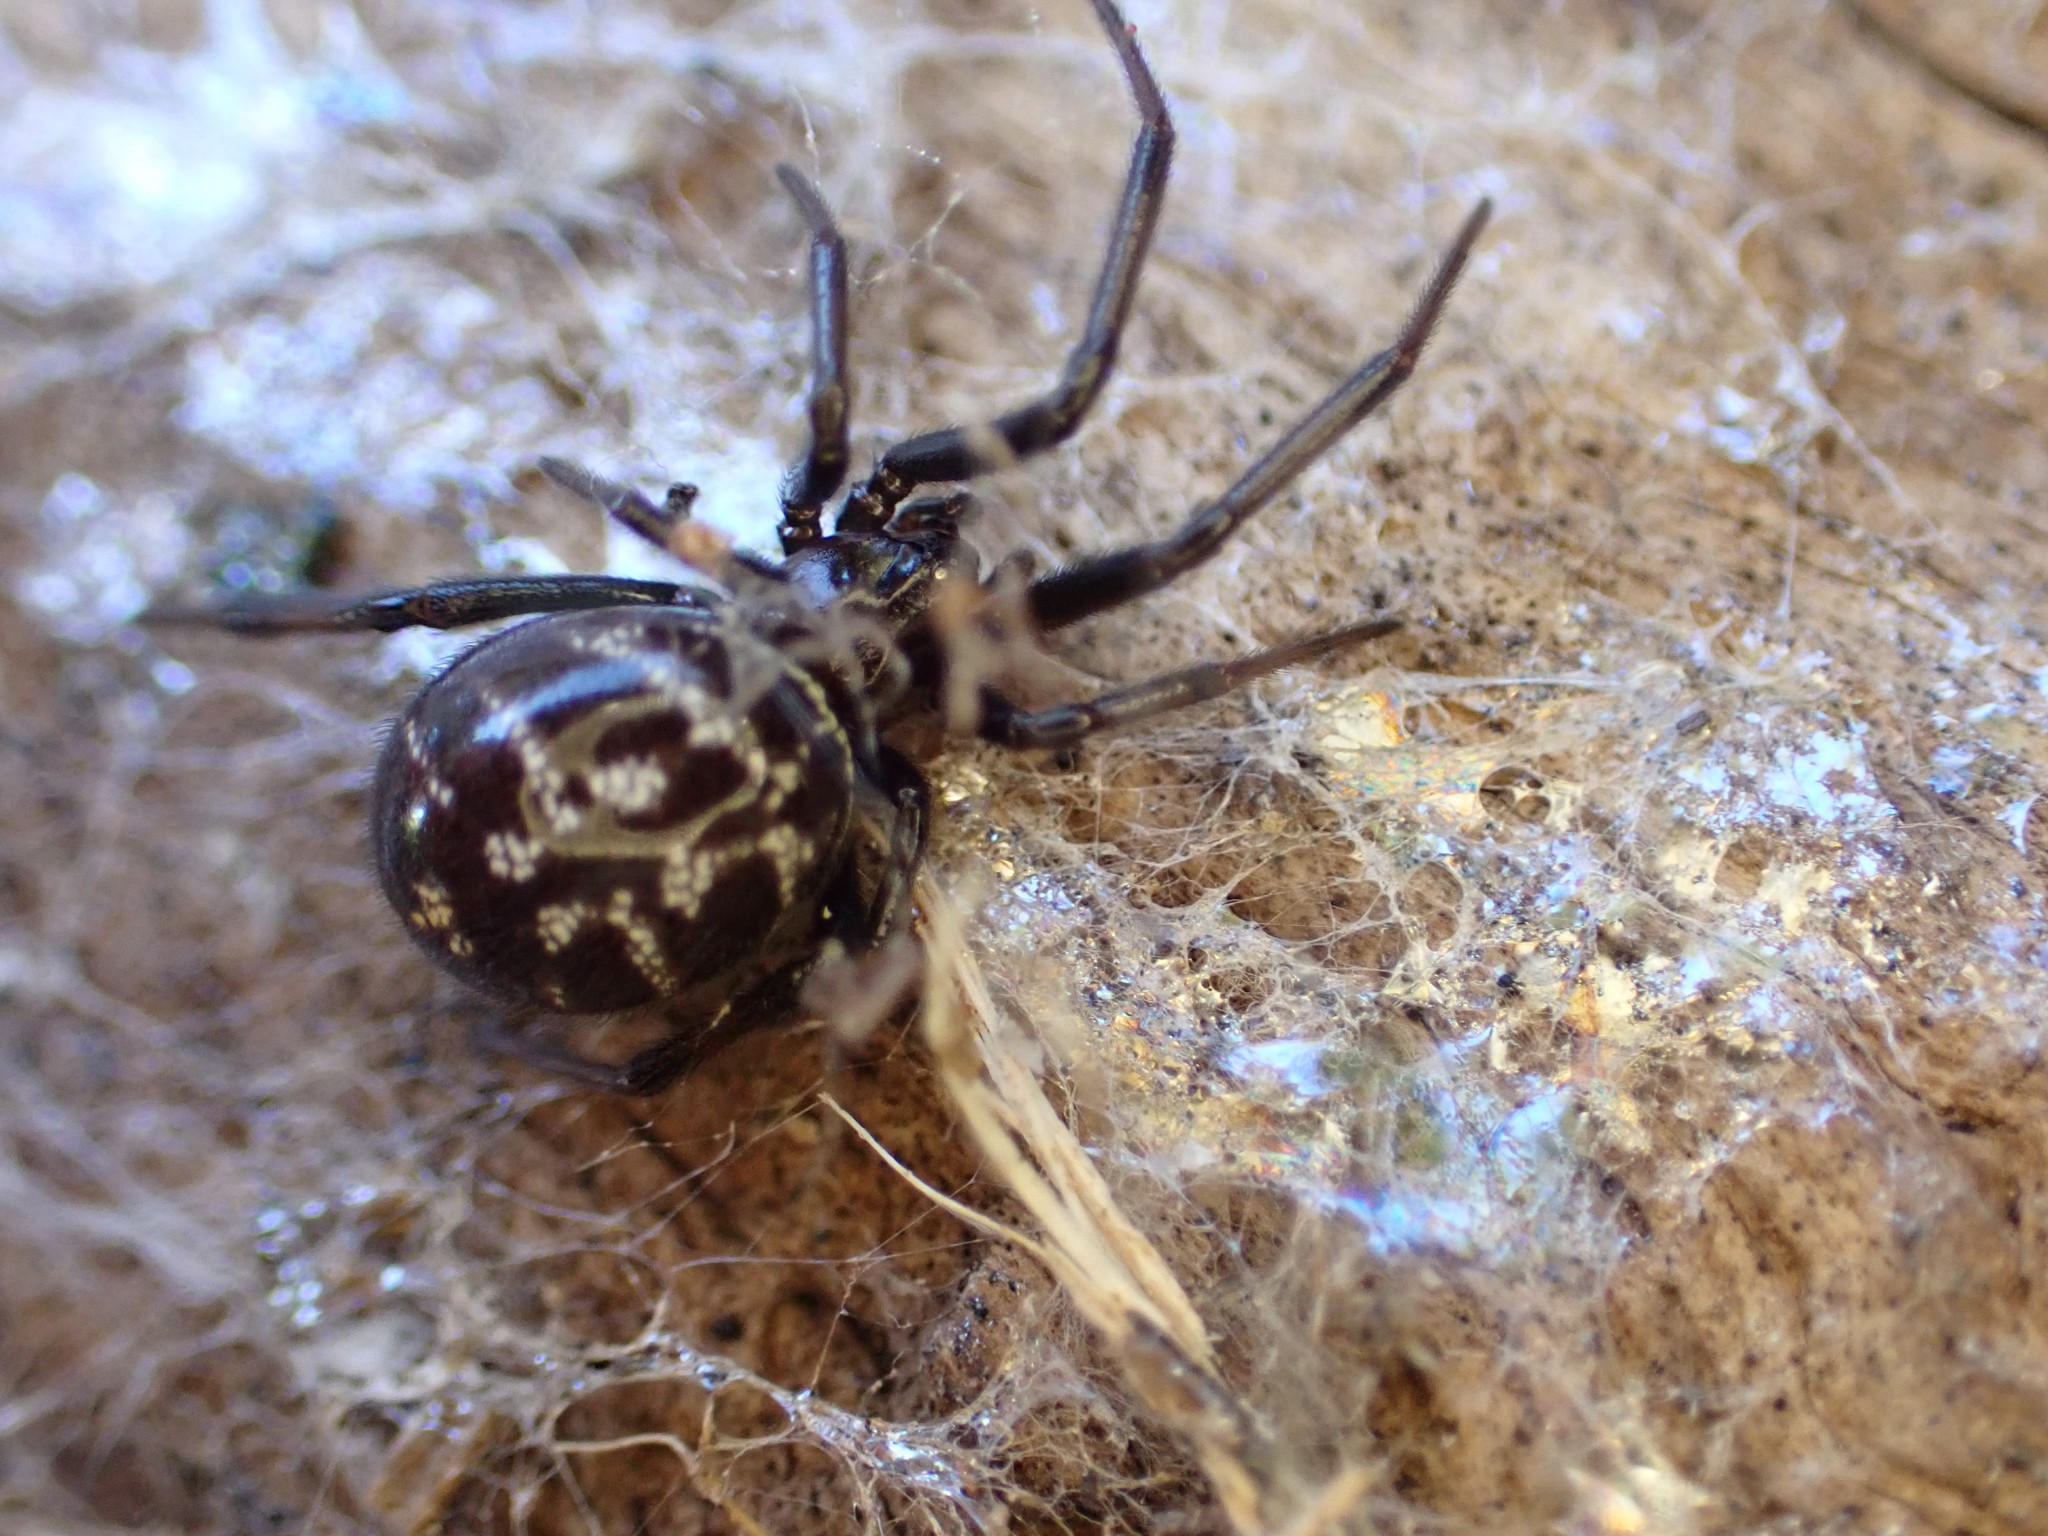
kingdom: Animalia
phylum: Arthropoda
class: Arachnida
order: Araneae
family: Theridiidae
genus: Steatoda
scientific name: Steatoda capensis
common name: Cobweb weaver
